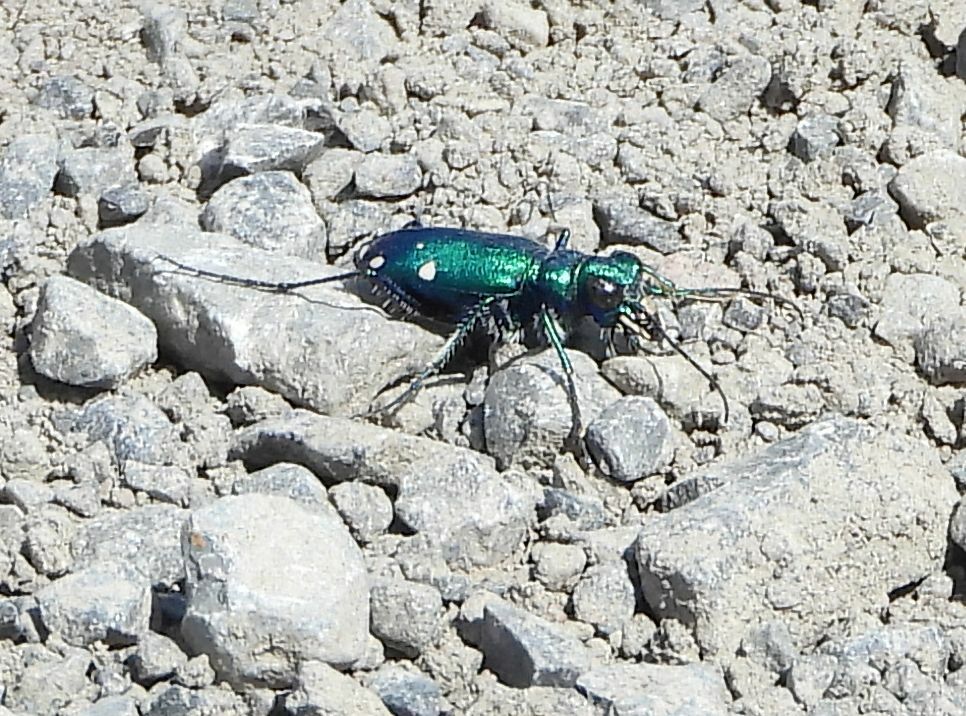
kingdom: Animalia
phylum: Arthropoda
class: Insecta
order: Coleoptera
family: Carabidae
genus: Cicindela
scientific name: Cicindela sexguttata
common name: Six-spotted tiger beetle
